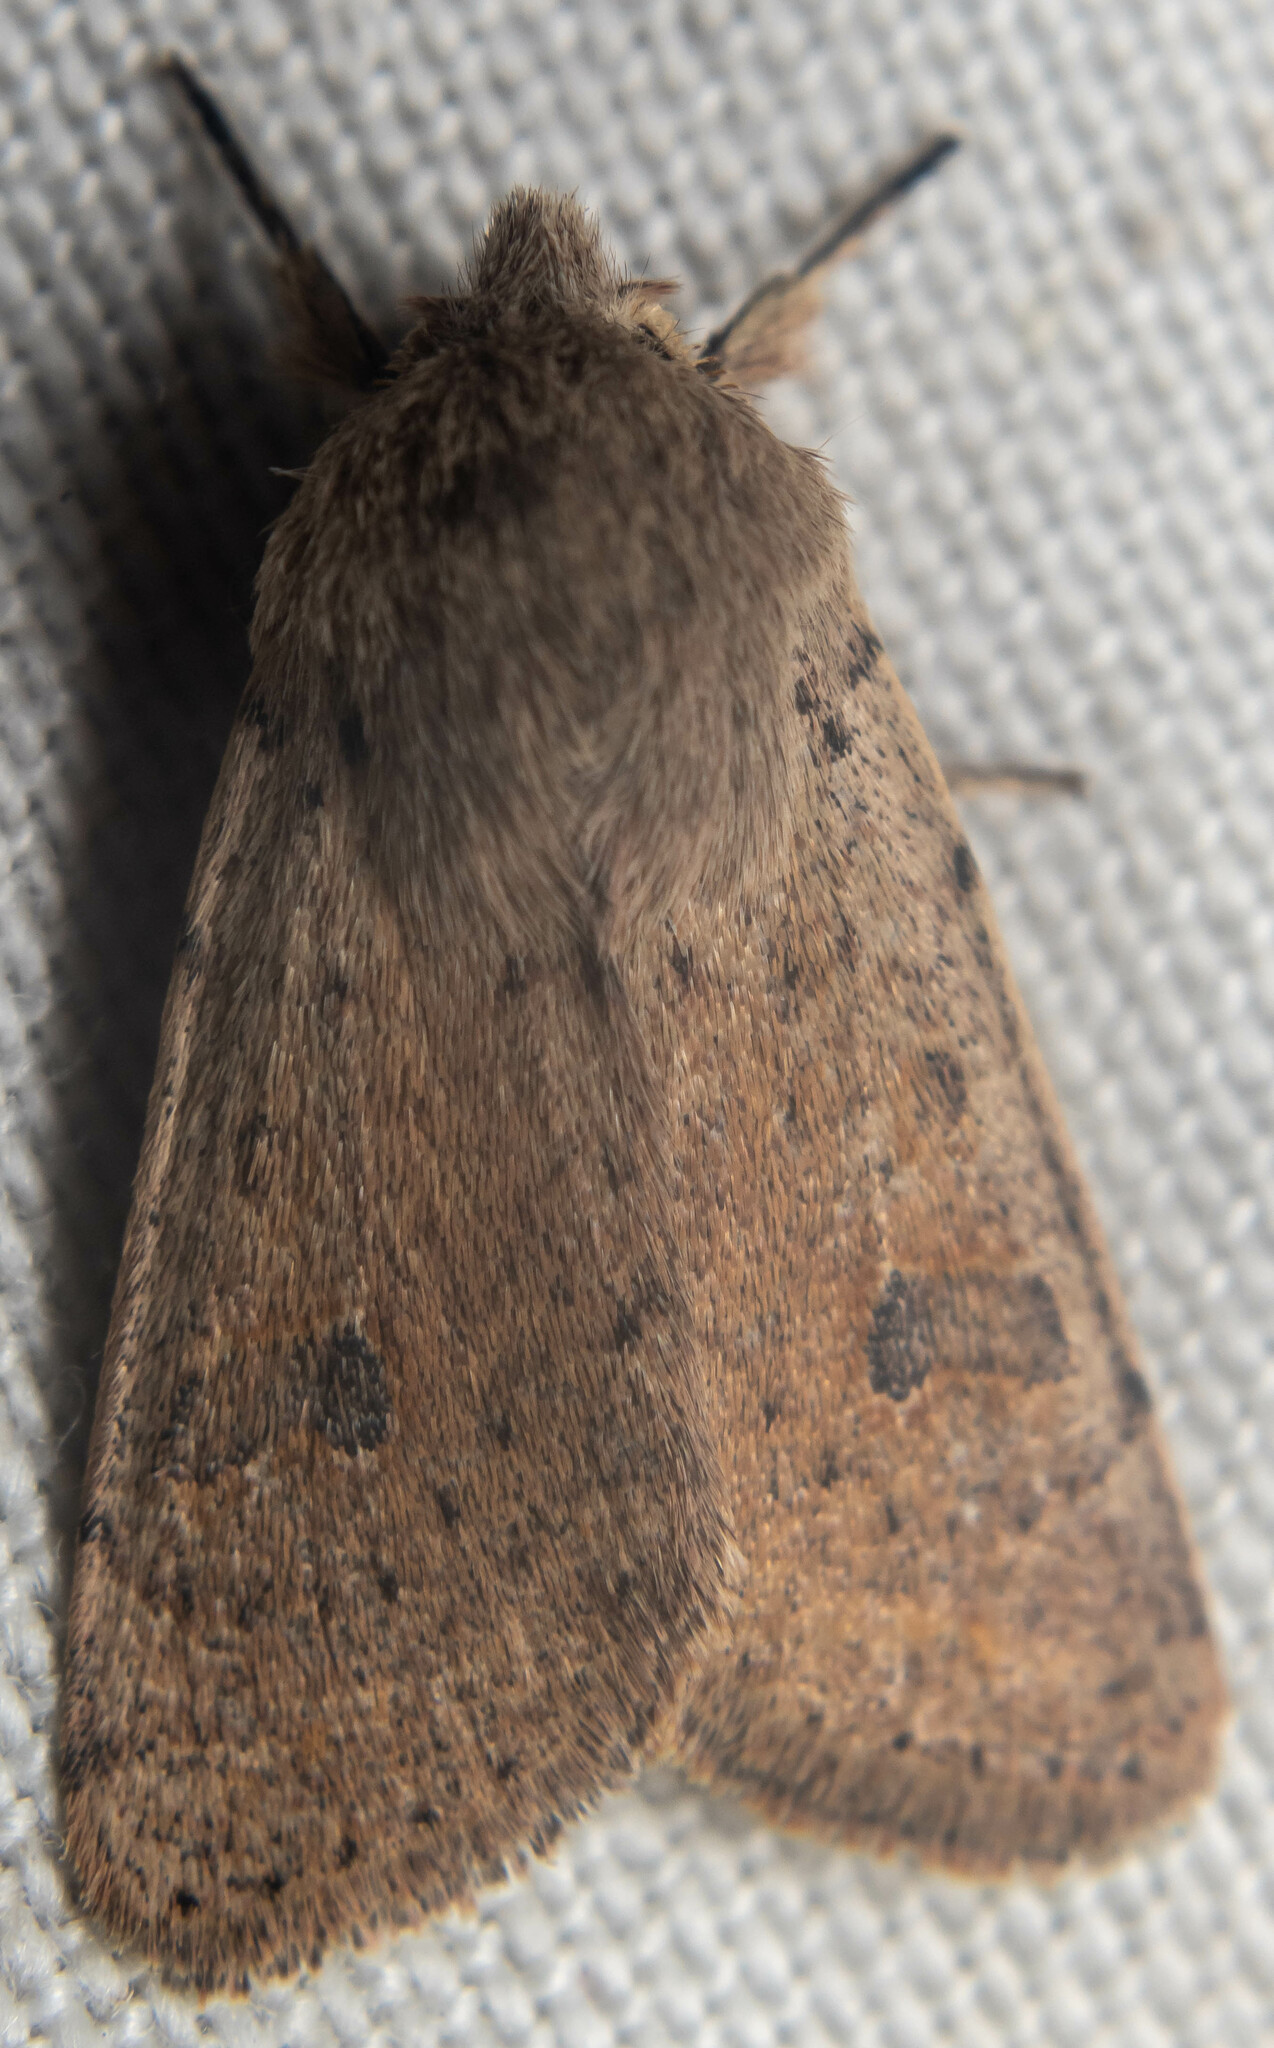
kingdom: Animalia
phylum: Arthropoda
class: Insecta
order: Lepidoptera
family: Noctuidae
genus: Orthosia
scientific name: Orthosia cruda
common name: Small quaker
